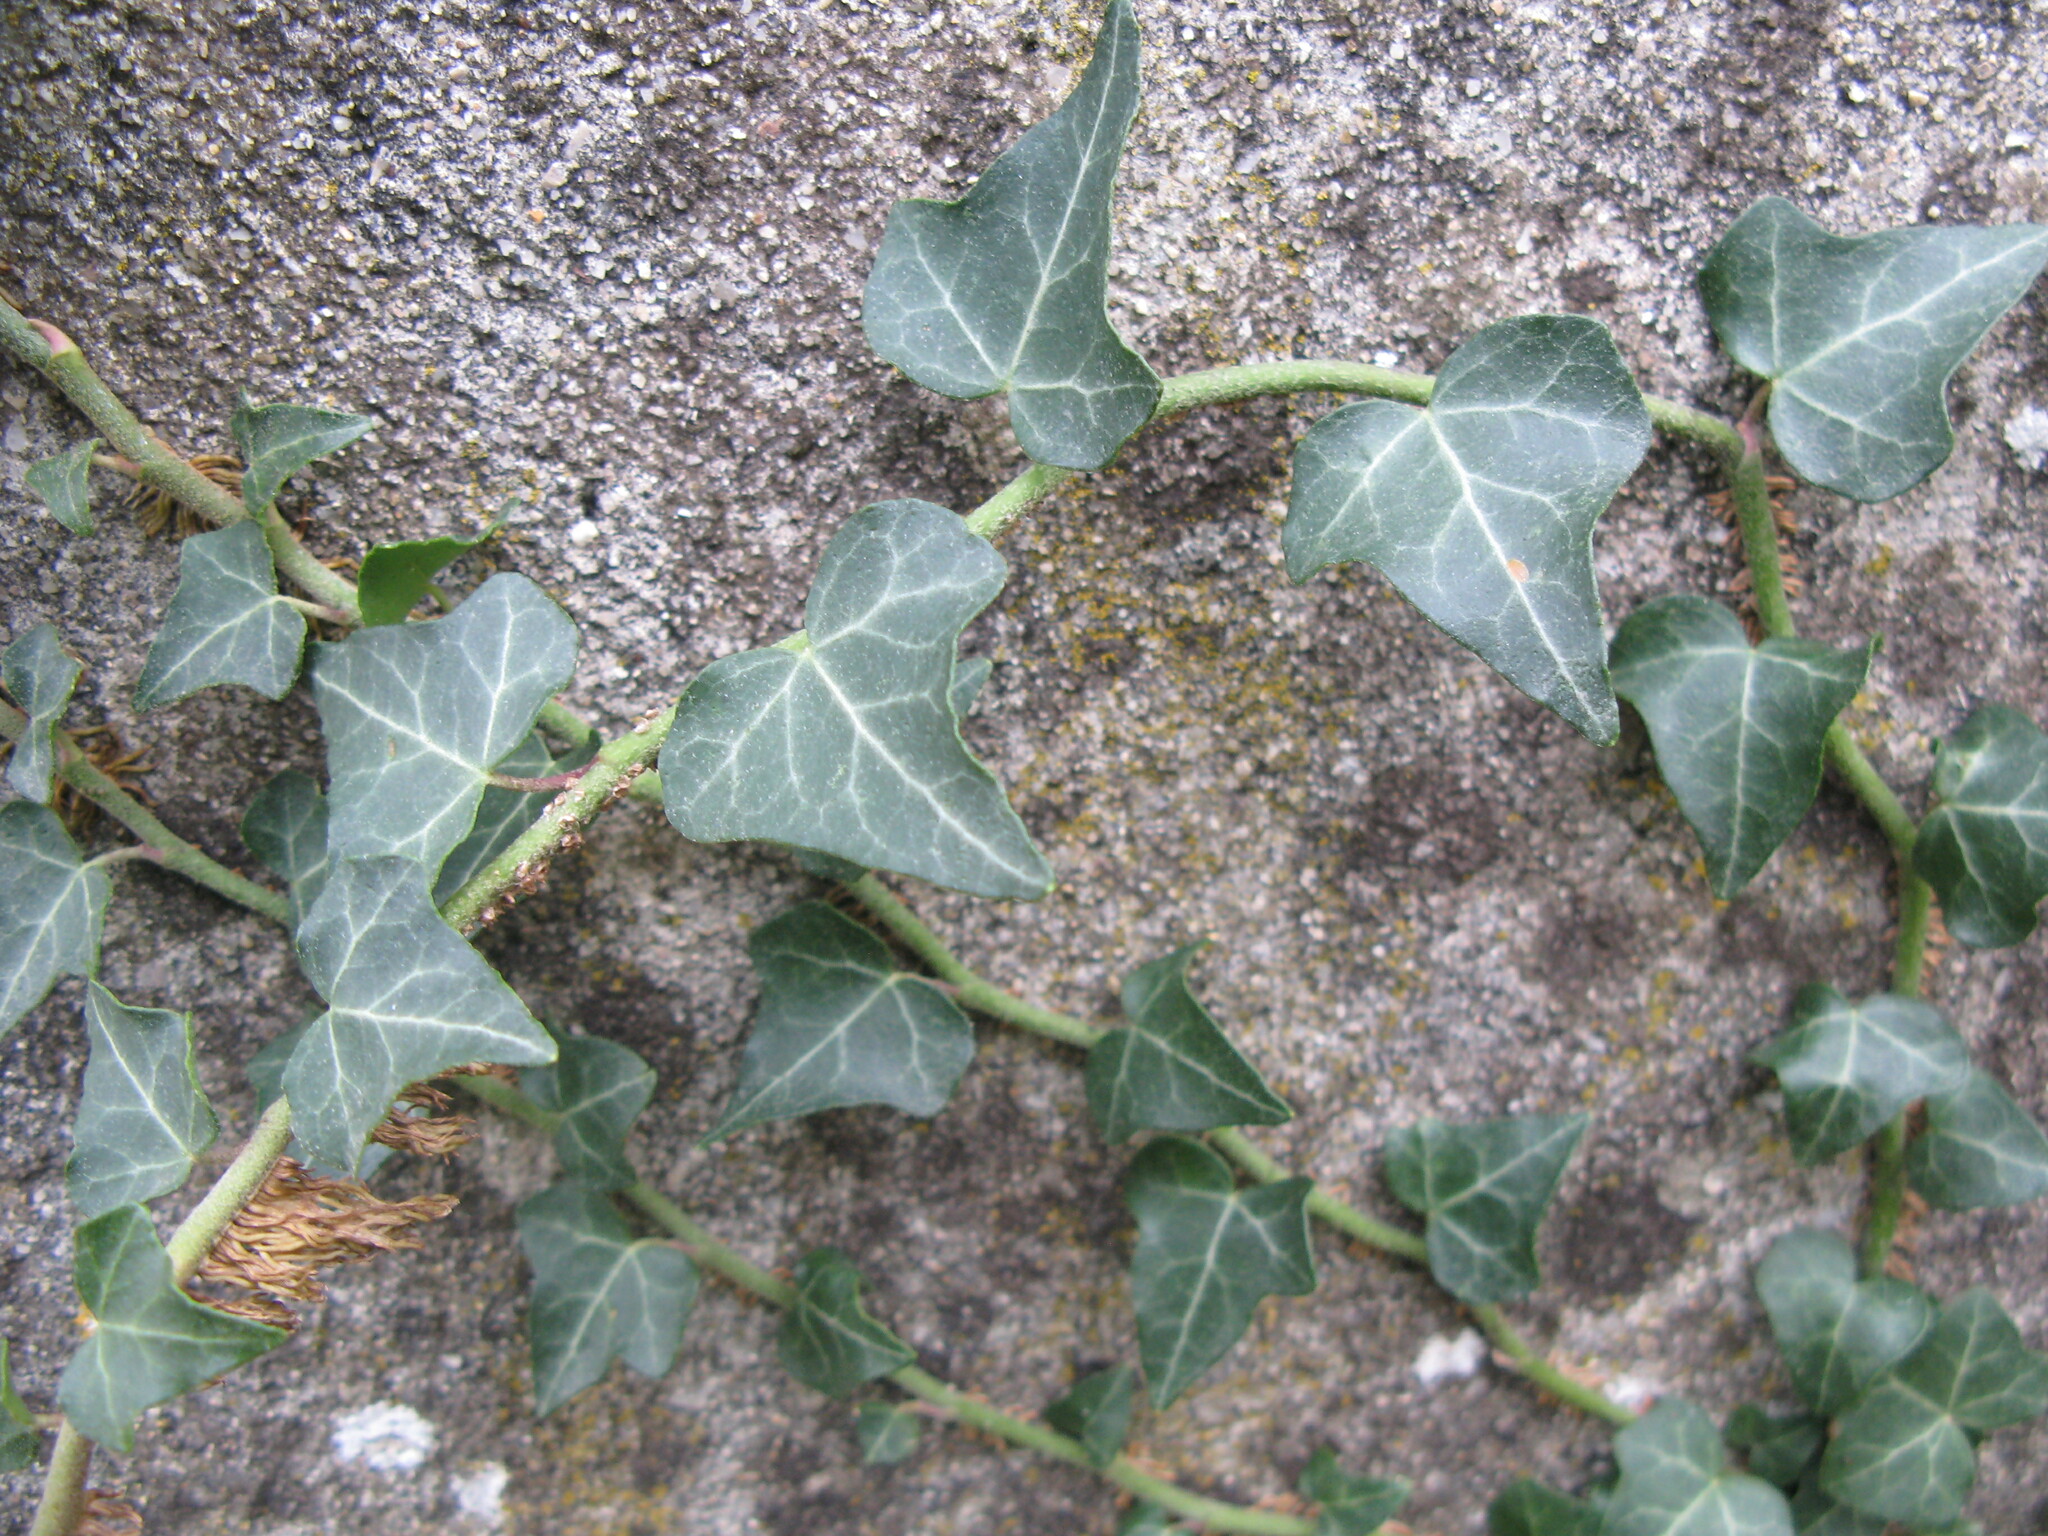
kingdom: Plantae
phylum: Tracheophyta
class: Magnoliopsida
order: Apiales
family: Araliaceae
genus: Hedera
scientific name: Hedera helix
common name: Ivy
